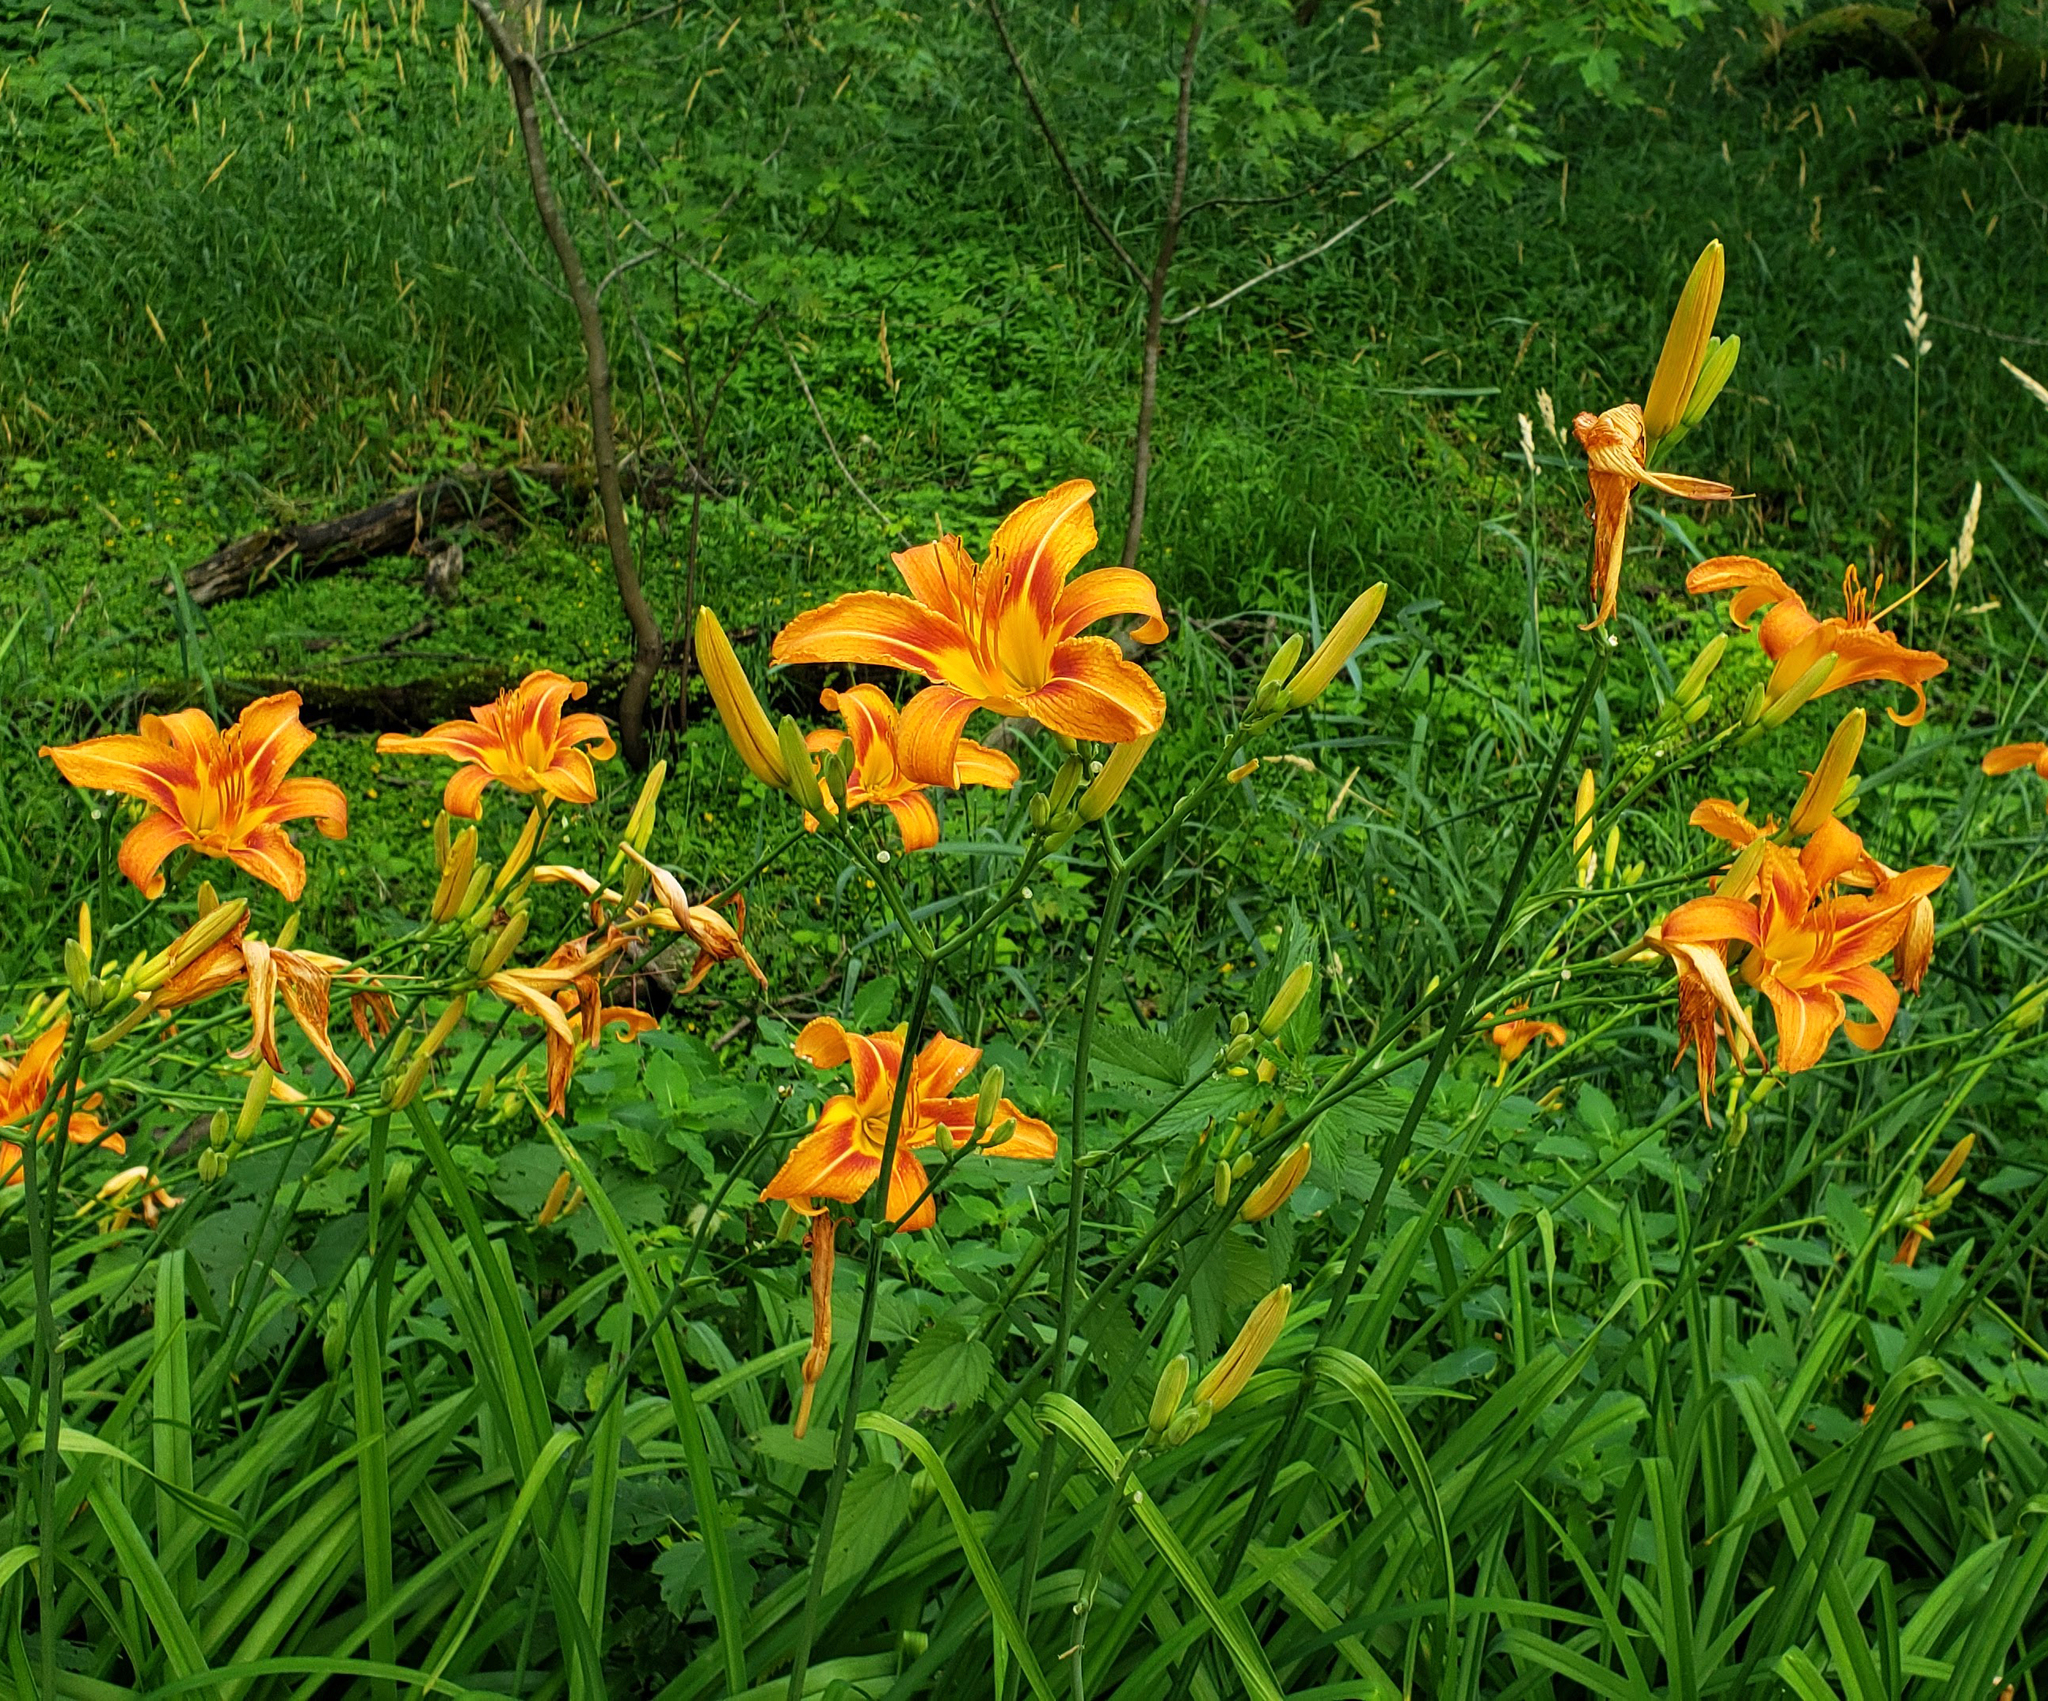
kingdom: Plantae
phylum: Tracheophyta
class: Liliopsida
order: Asparagales
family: Asphodelaceae
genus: Hemerocallis
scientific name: Hemerocallis fulva
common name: Orange day-lily
